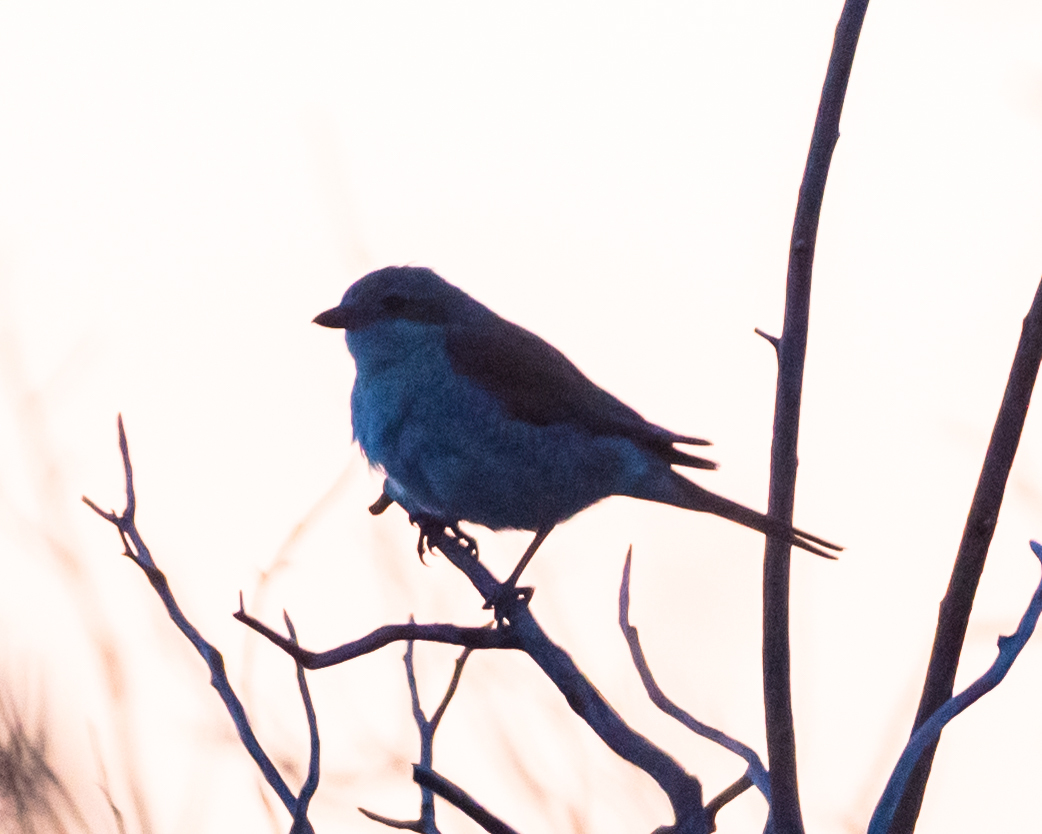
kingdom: Animalia
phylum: Chordata
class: Aves
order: Passeriformes
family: Laniidae
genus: Lanius
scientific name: Lanius collurio
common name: Red-backed shrike
